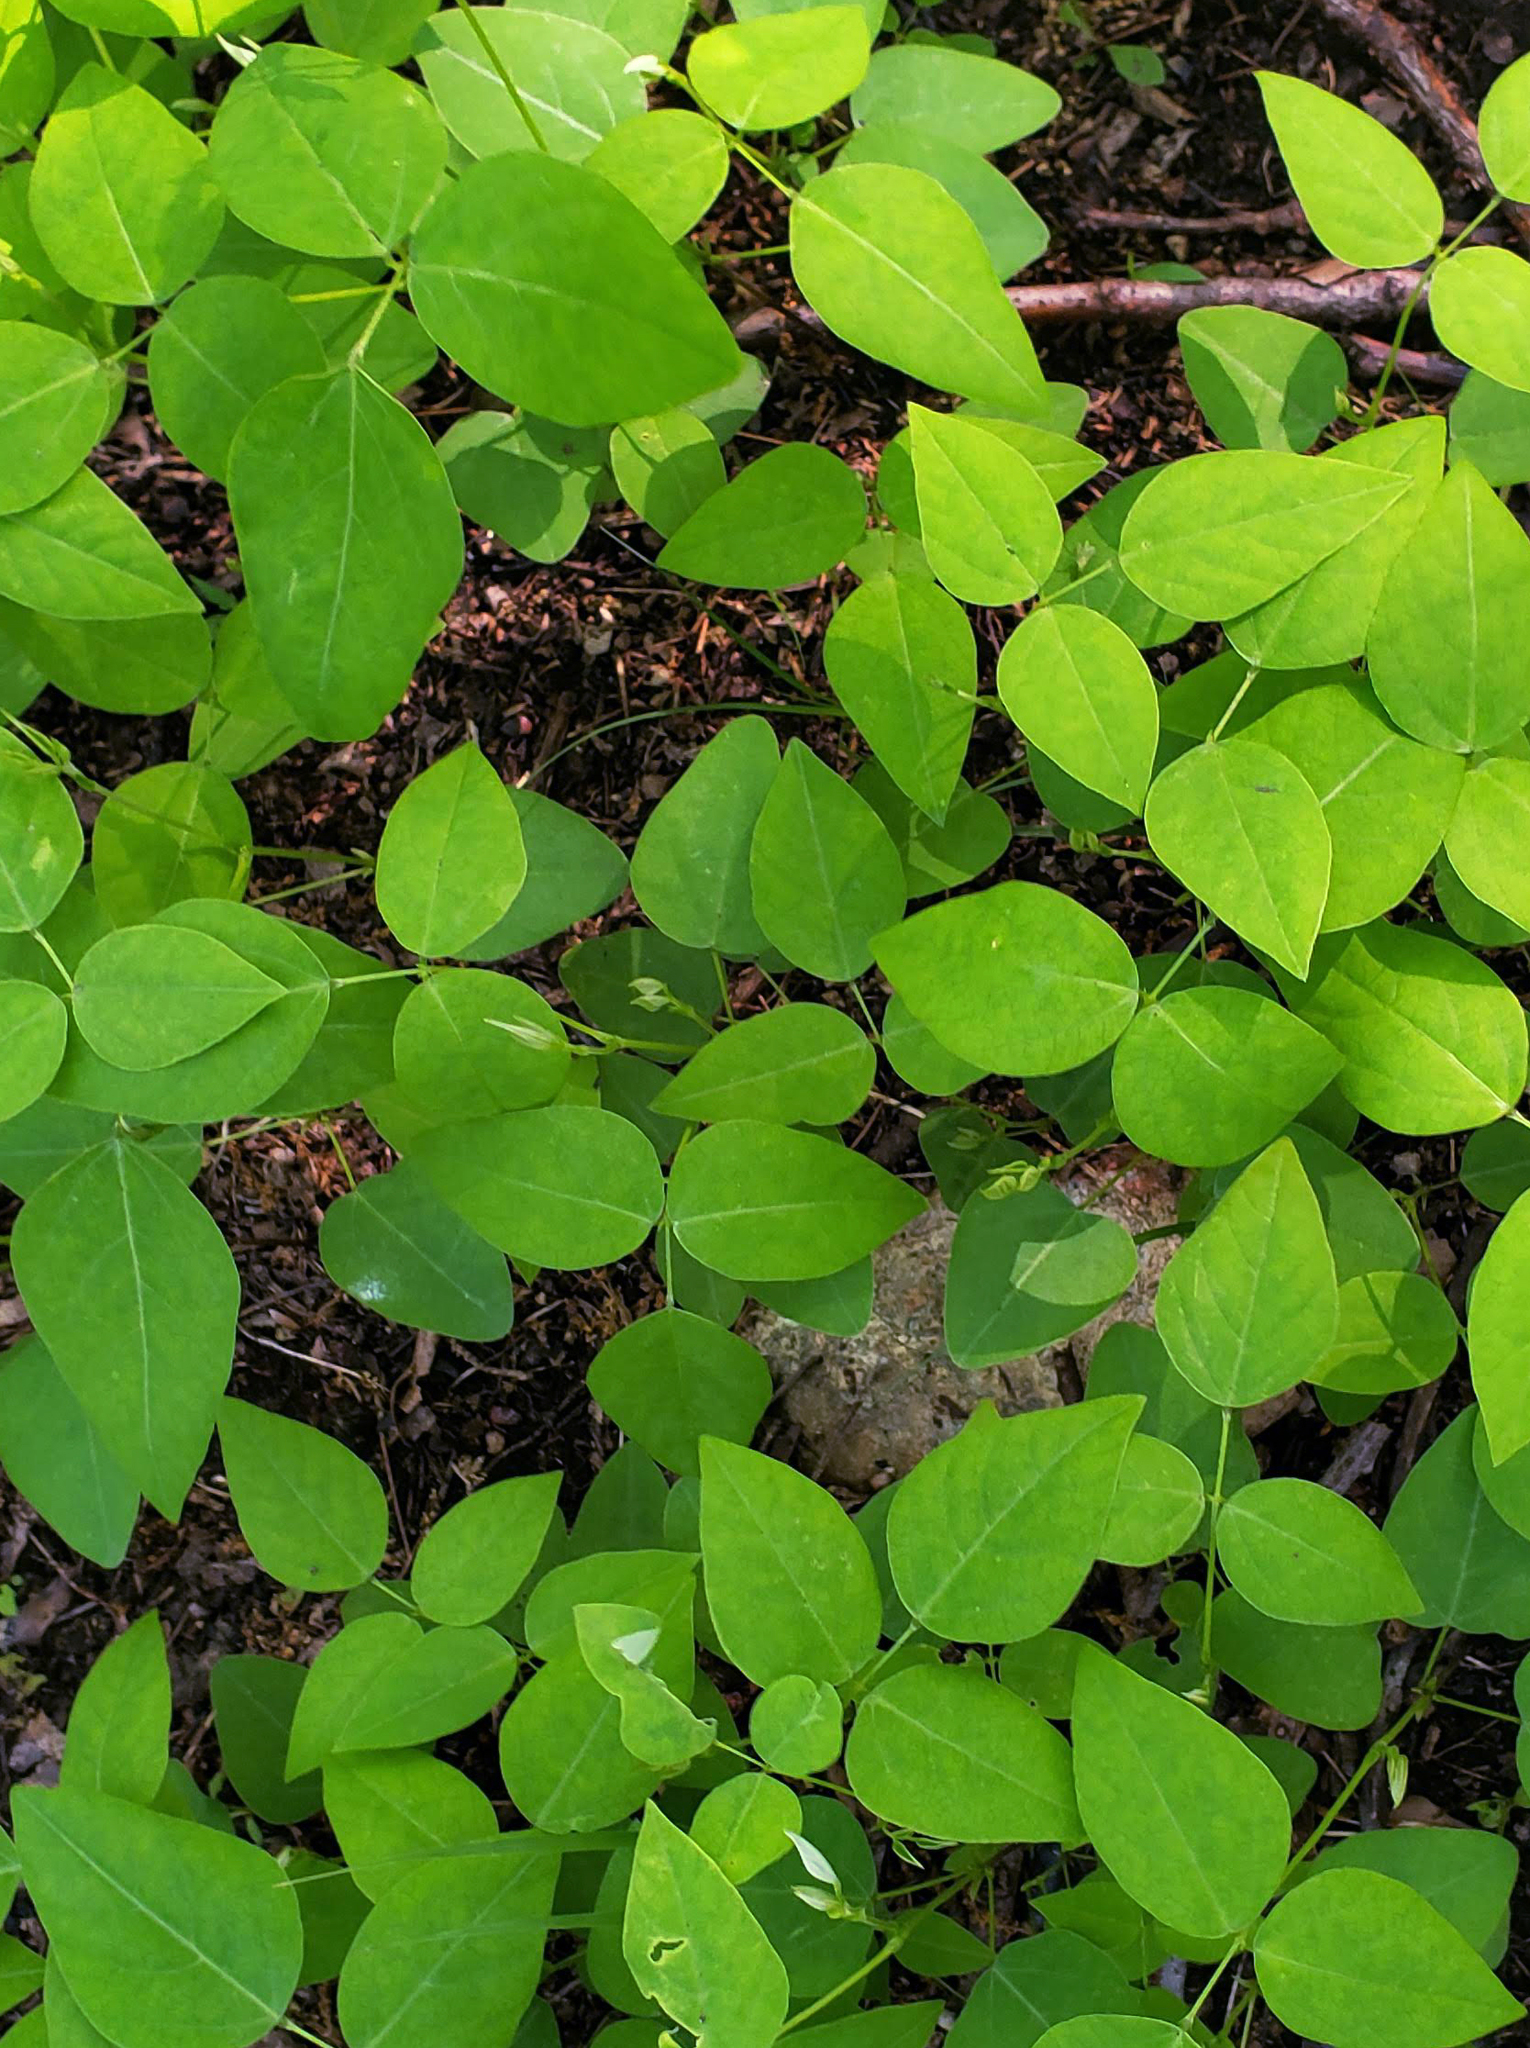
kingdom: Plantae
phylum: Tracheophyta
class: Magnoliopsida
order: Fabales
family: Fabaceae
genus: Amphicarpaea
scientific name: Amphicarpaea bracteata
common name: American hog peanut
